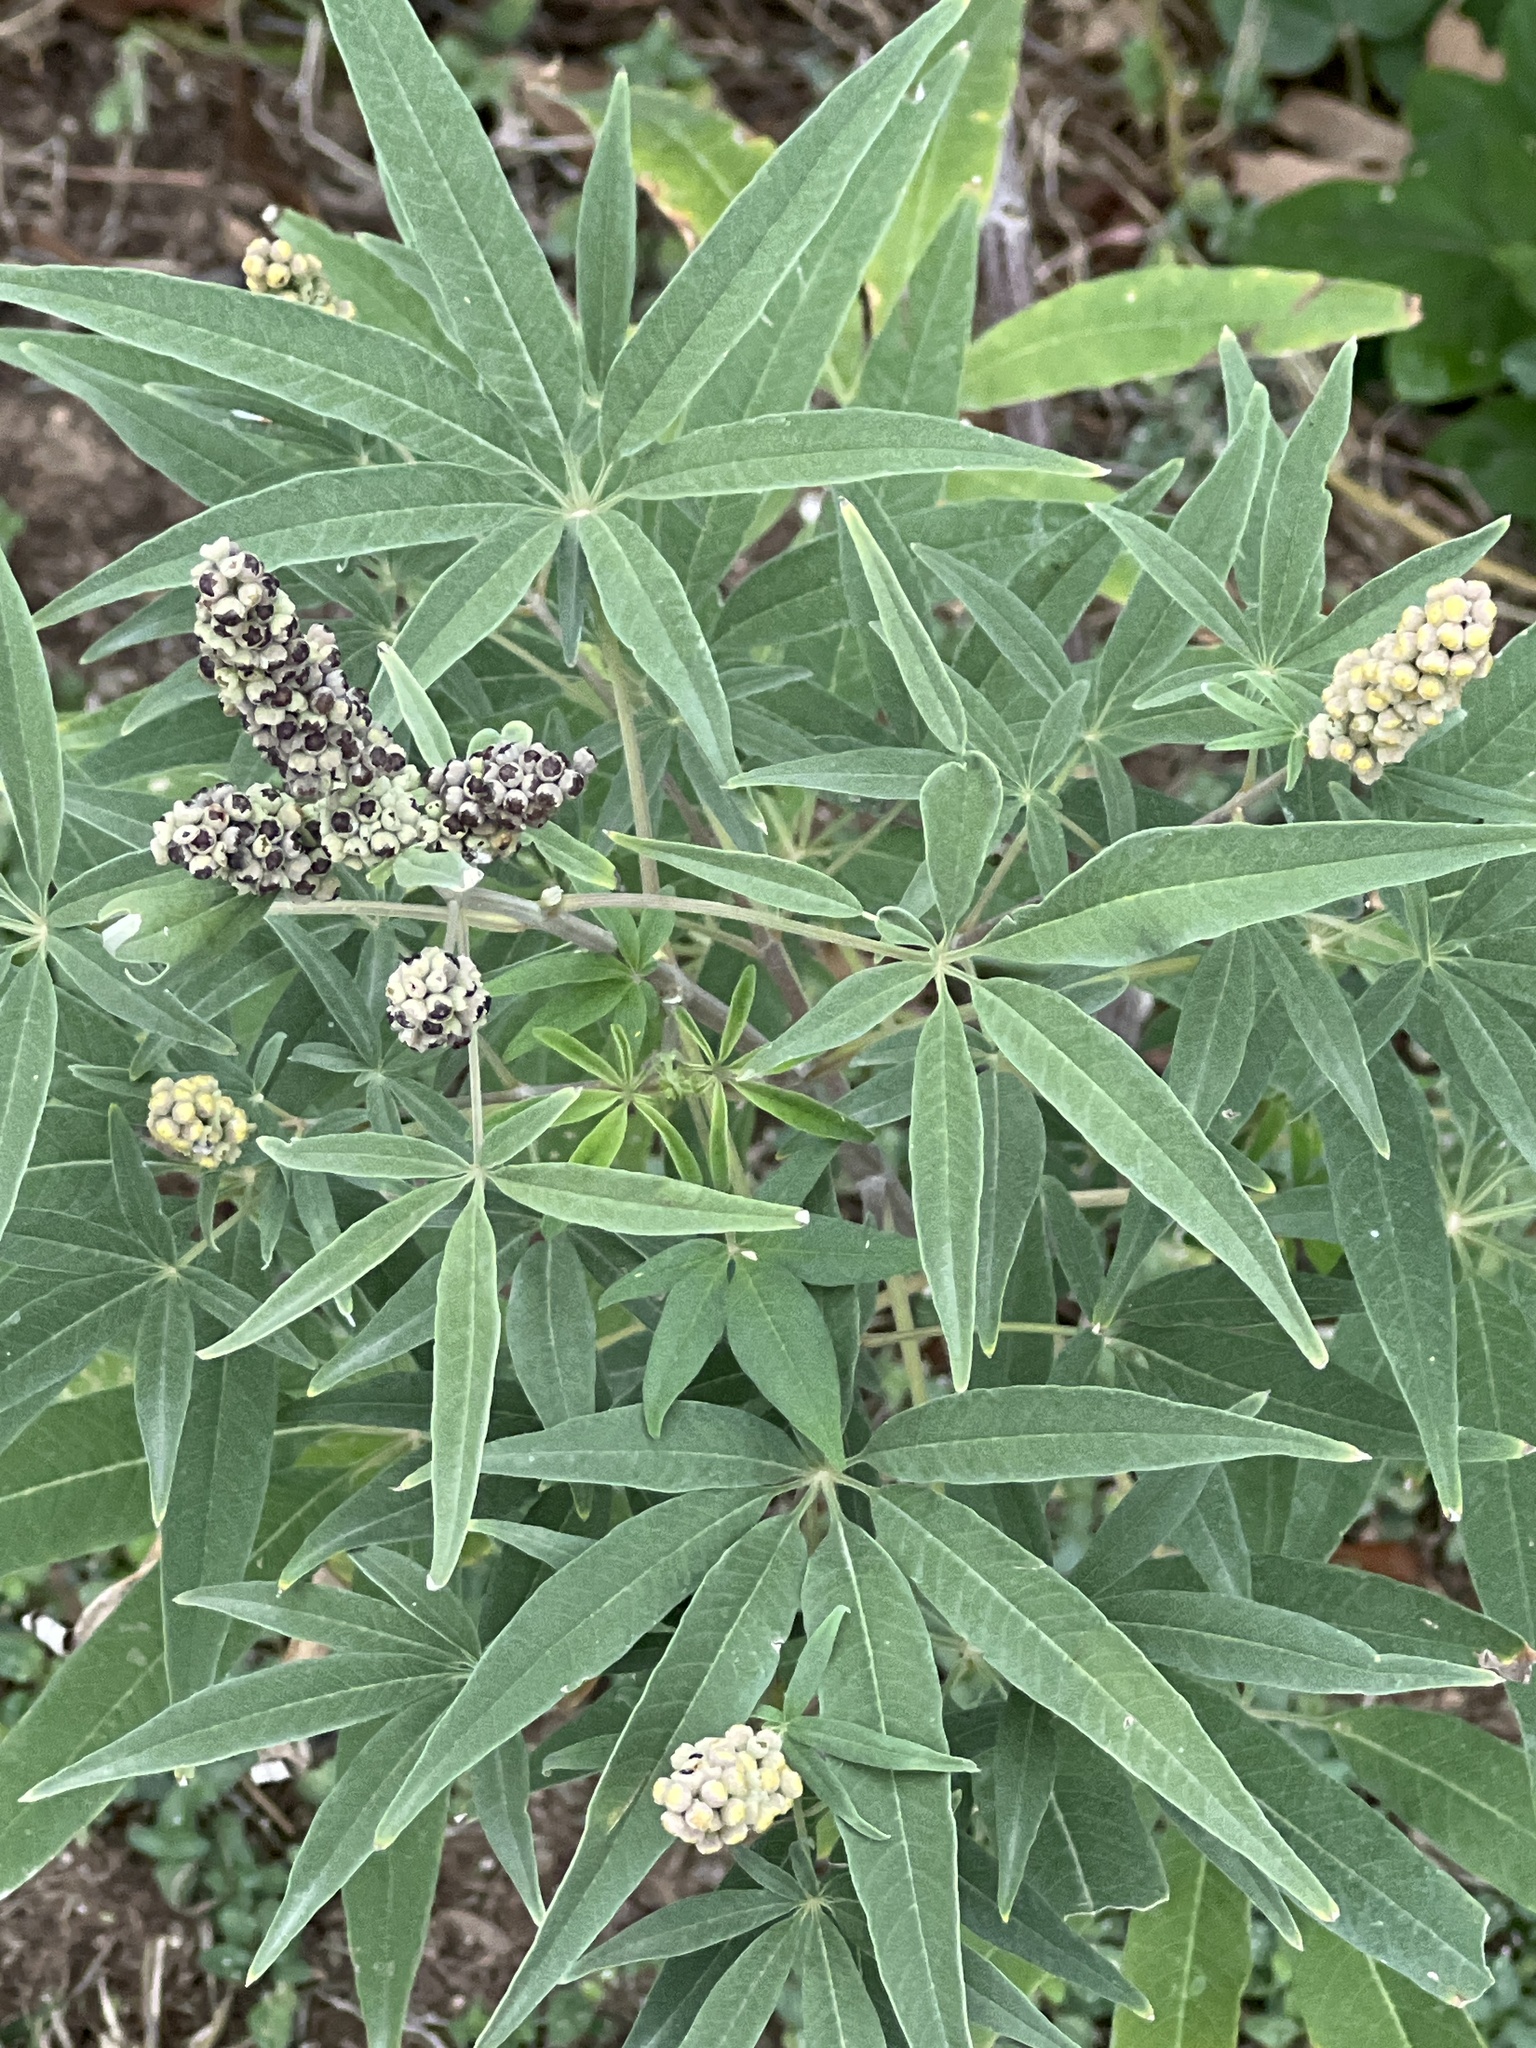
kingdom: Plantae
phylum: Tracheophyta
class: Magnoliopsida
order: Lamiales
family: Lamiaceae
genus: Vitex
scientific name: Vitex agnus-castus
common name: Chasteberry
